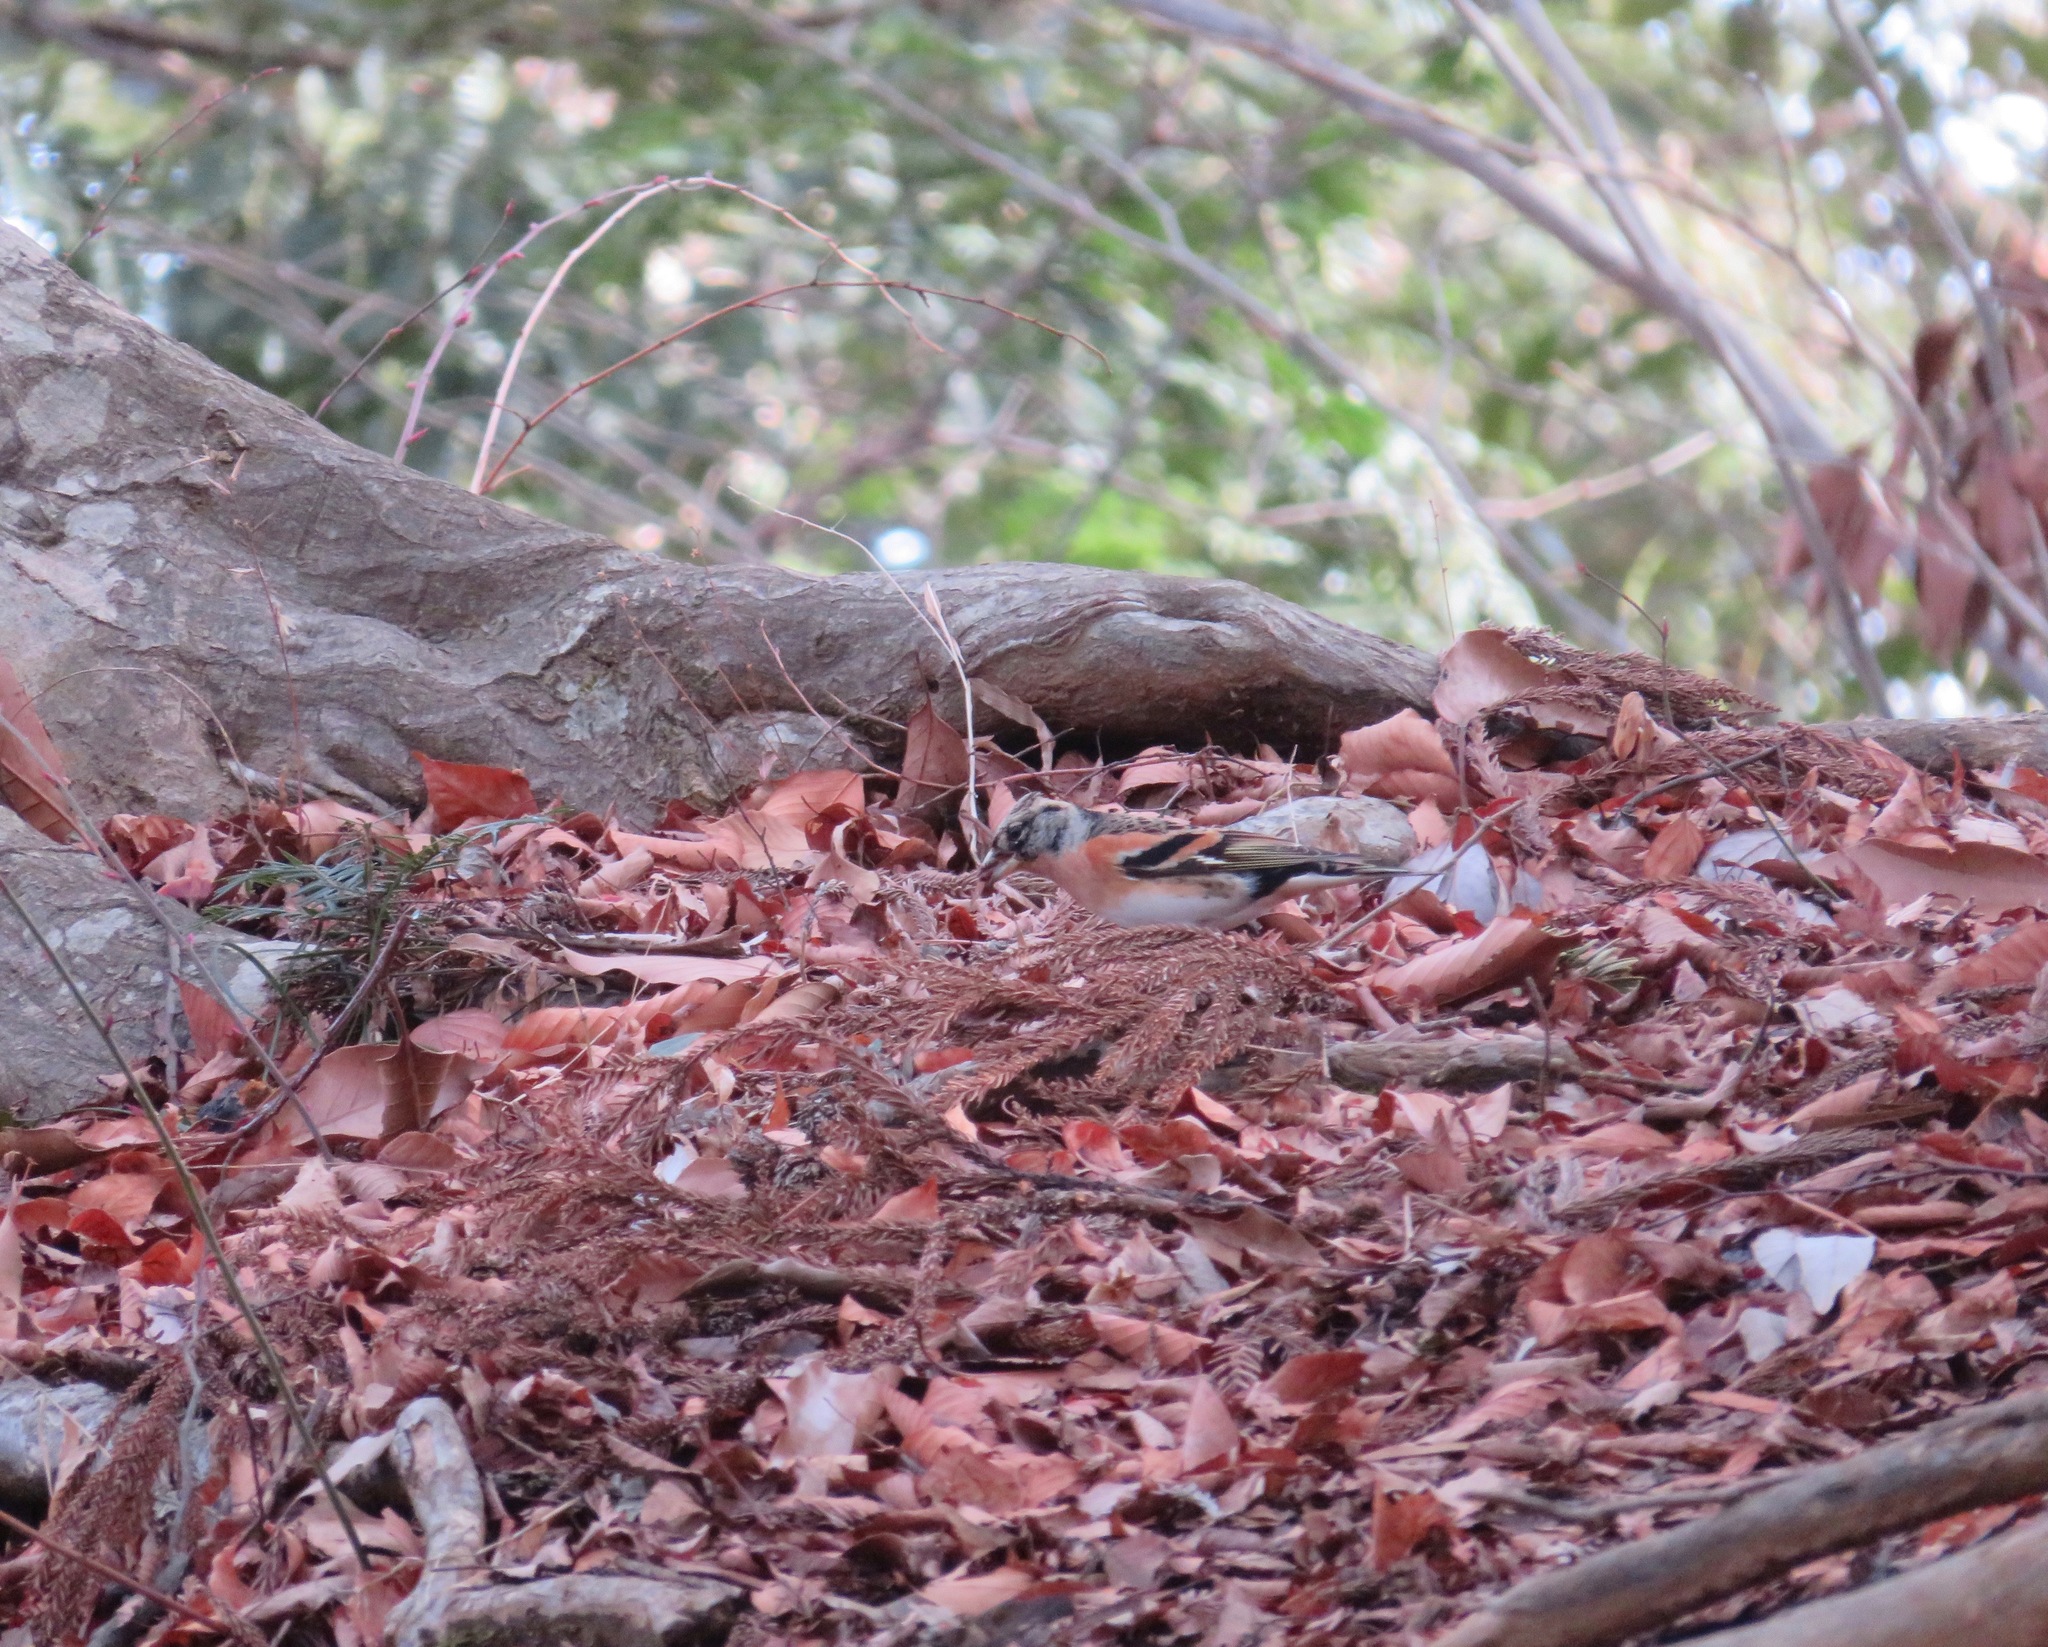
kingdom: Animalia
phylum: Chordata
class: Aves
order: Passeriformes
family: Fringillidae
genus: Fringilla
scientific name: Fringilla montifringilla
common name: Brambling
